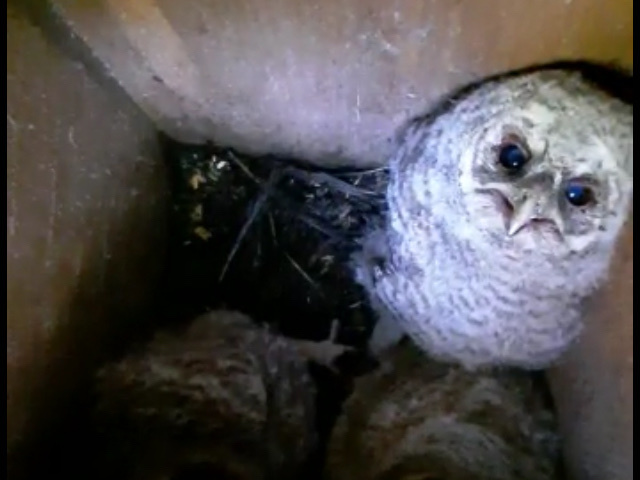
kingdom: Animalia
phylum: Chordata
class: Aves
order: Strigiformes
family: Strigidae
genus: Strix
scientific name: Strix aluco
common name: Tawny owl
